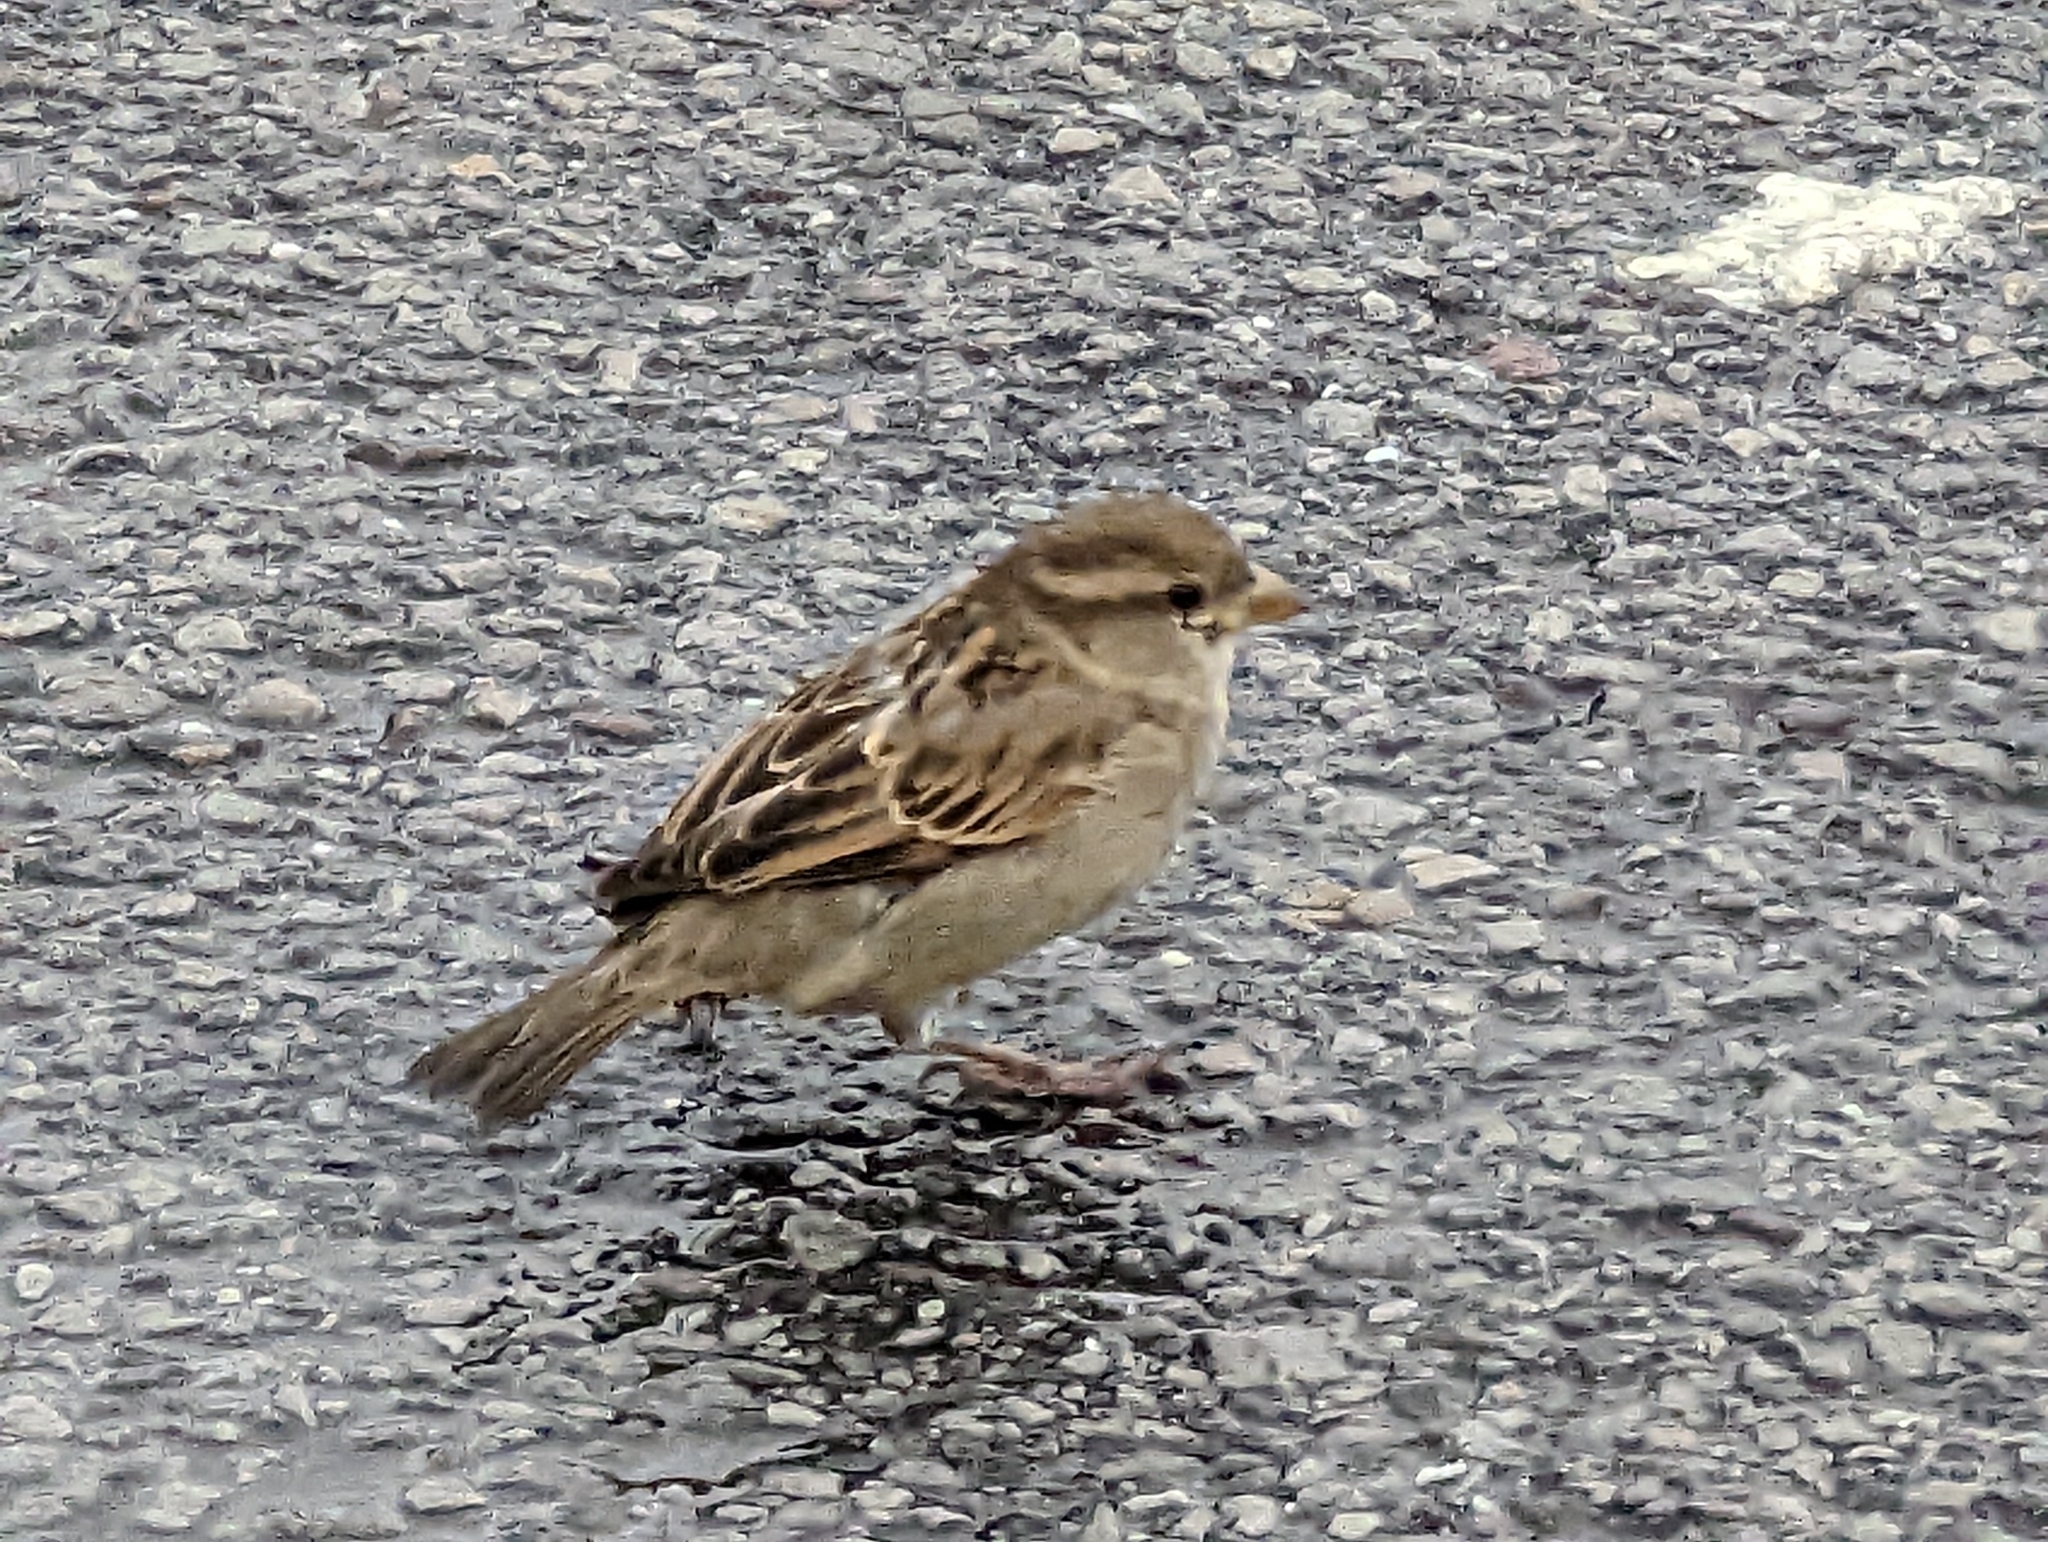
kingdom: Animalia
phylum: Chordata
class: Aves
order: Passeriformes
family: Passeridae
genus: Passer
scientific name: Passer domesticus
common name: House sparrow
